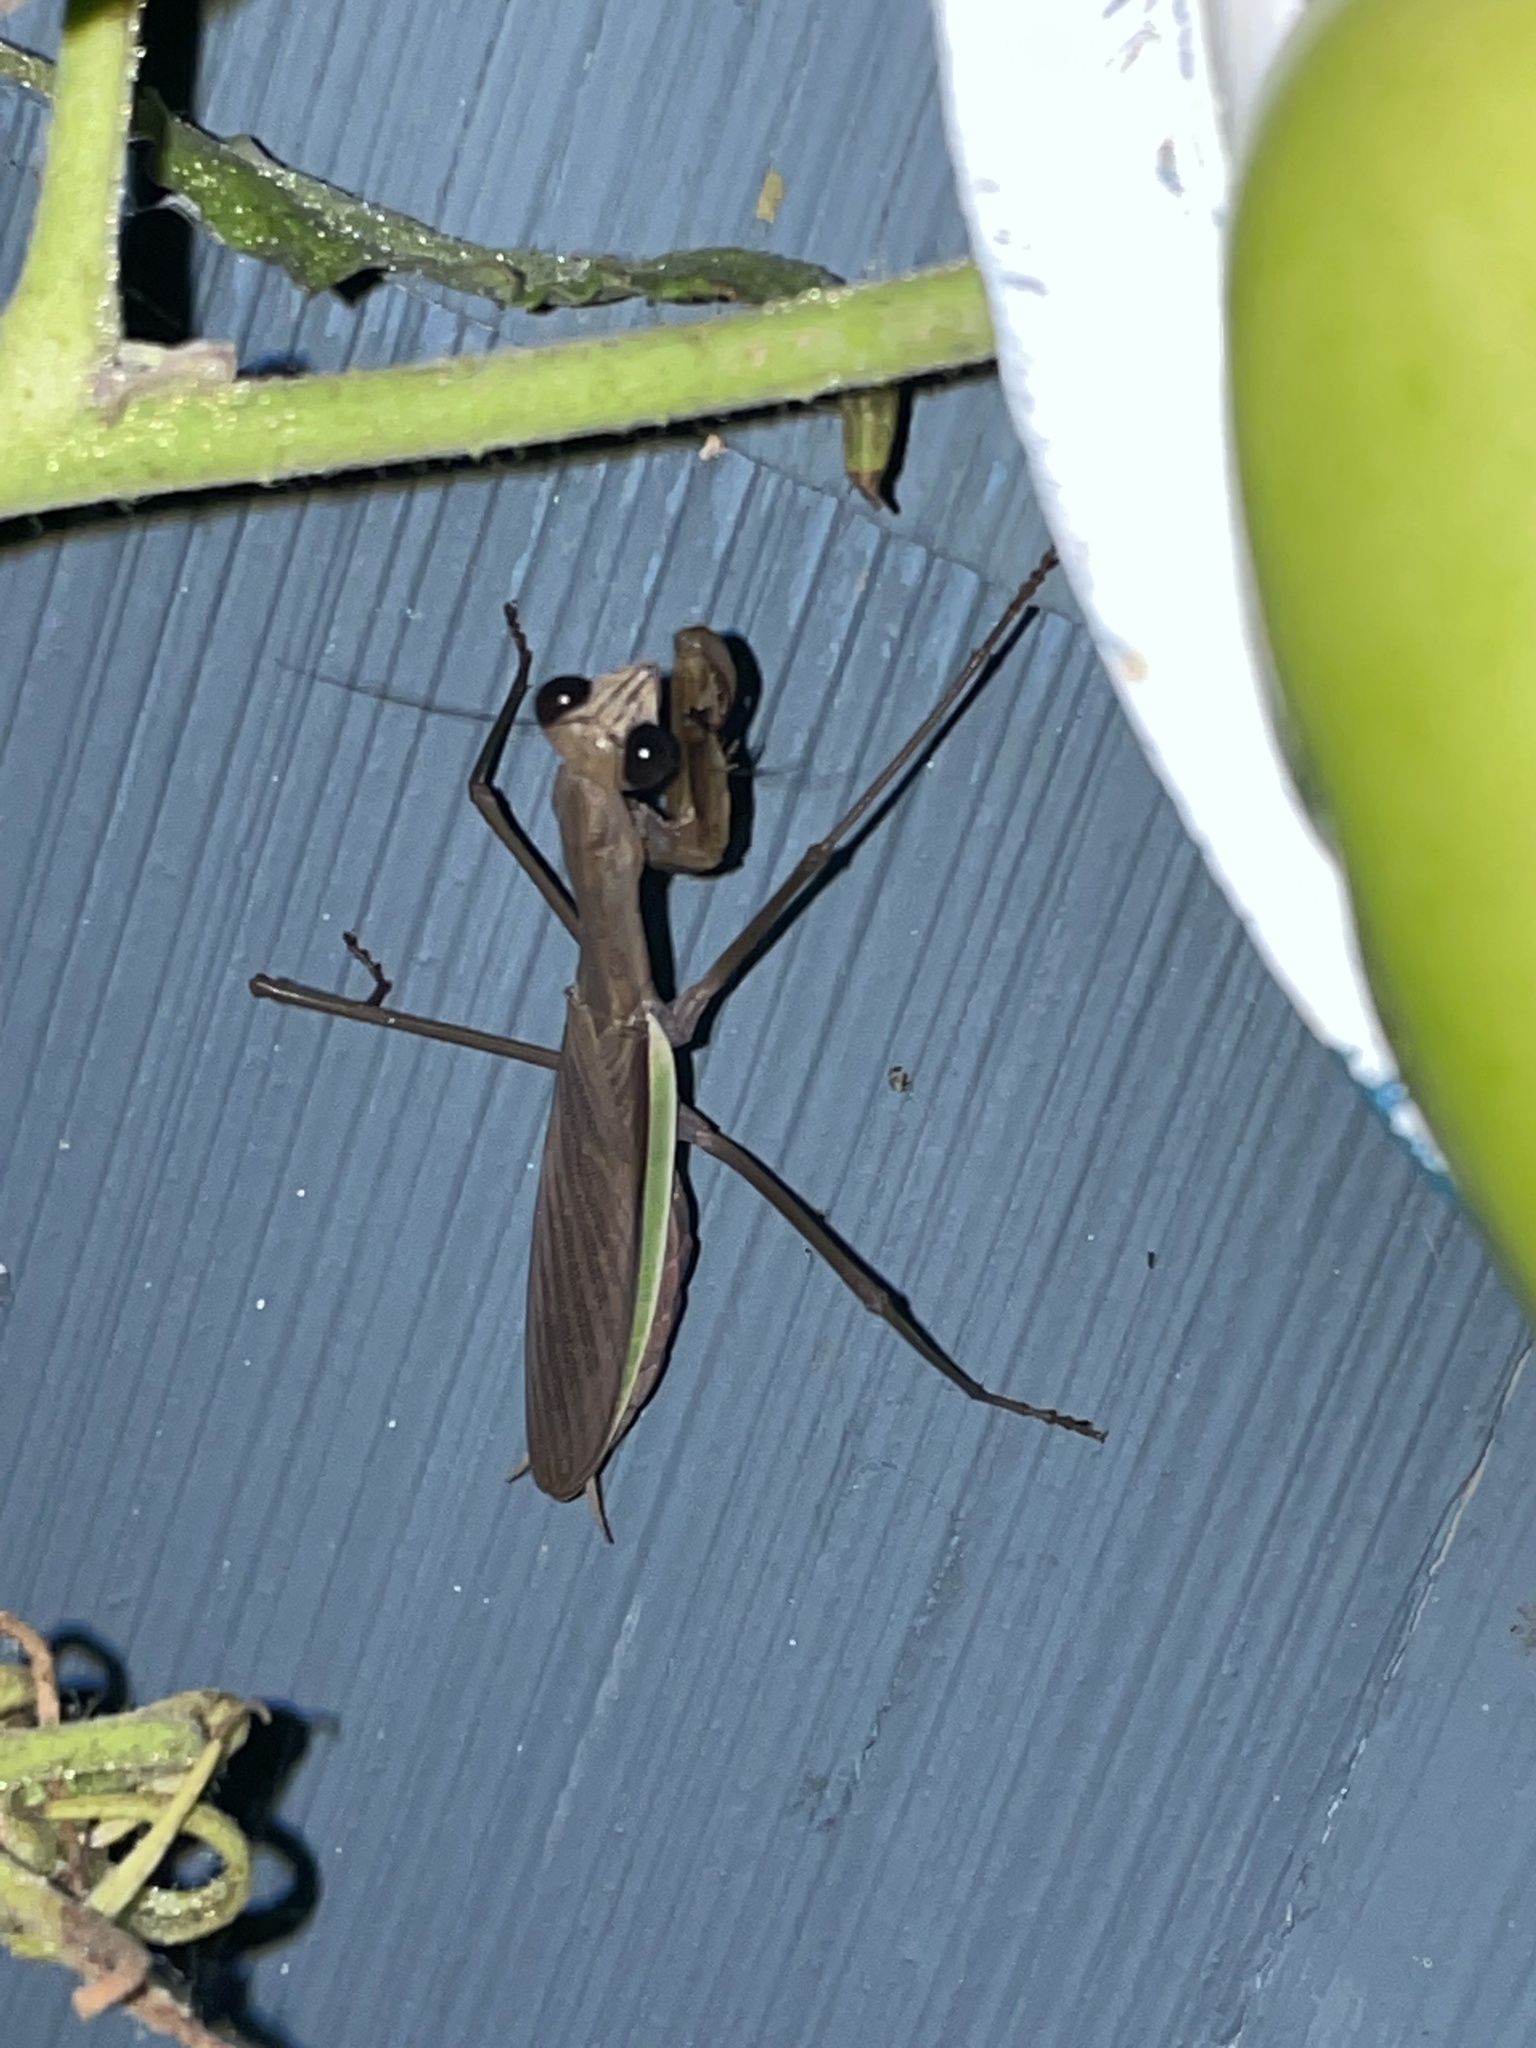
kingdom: Animalia
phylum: Arthropoda
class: Insecta
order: Mantodea
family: Mantidae
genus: Tenodera
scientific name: Tenodera sinensis
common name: Chinese mantis
